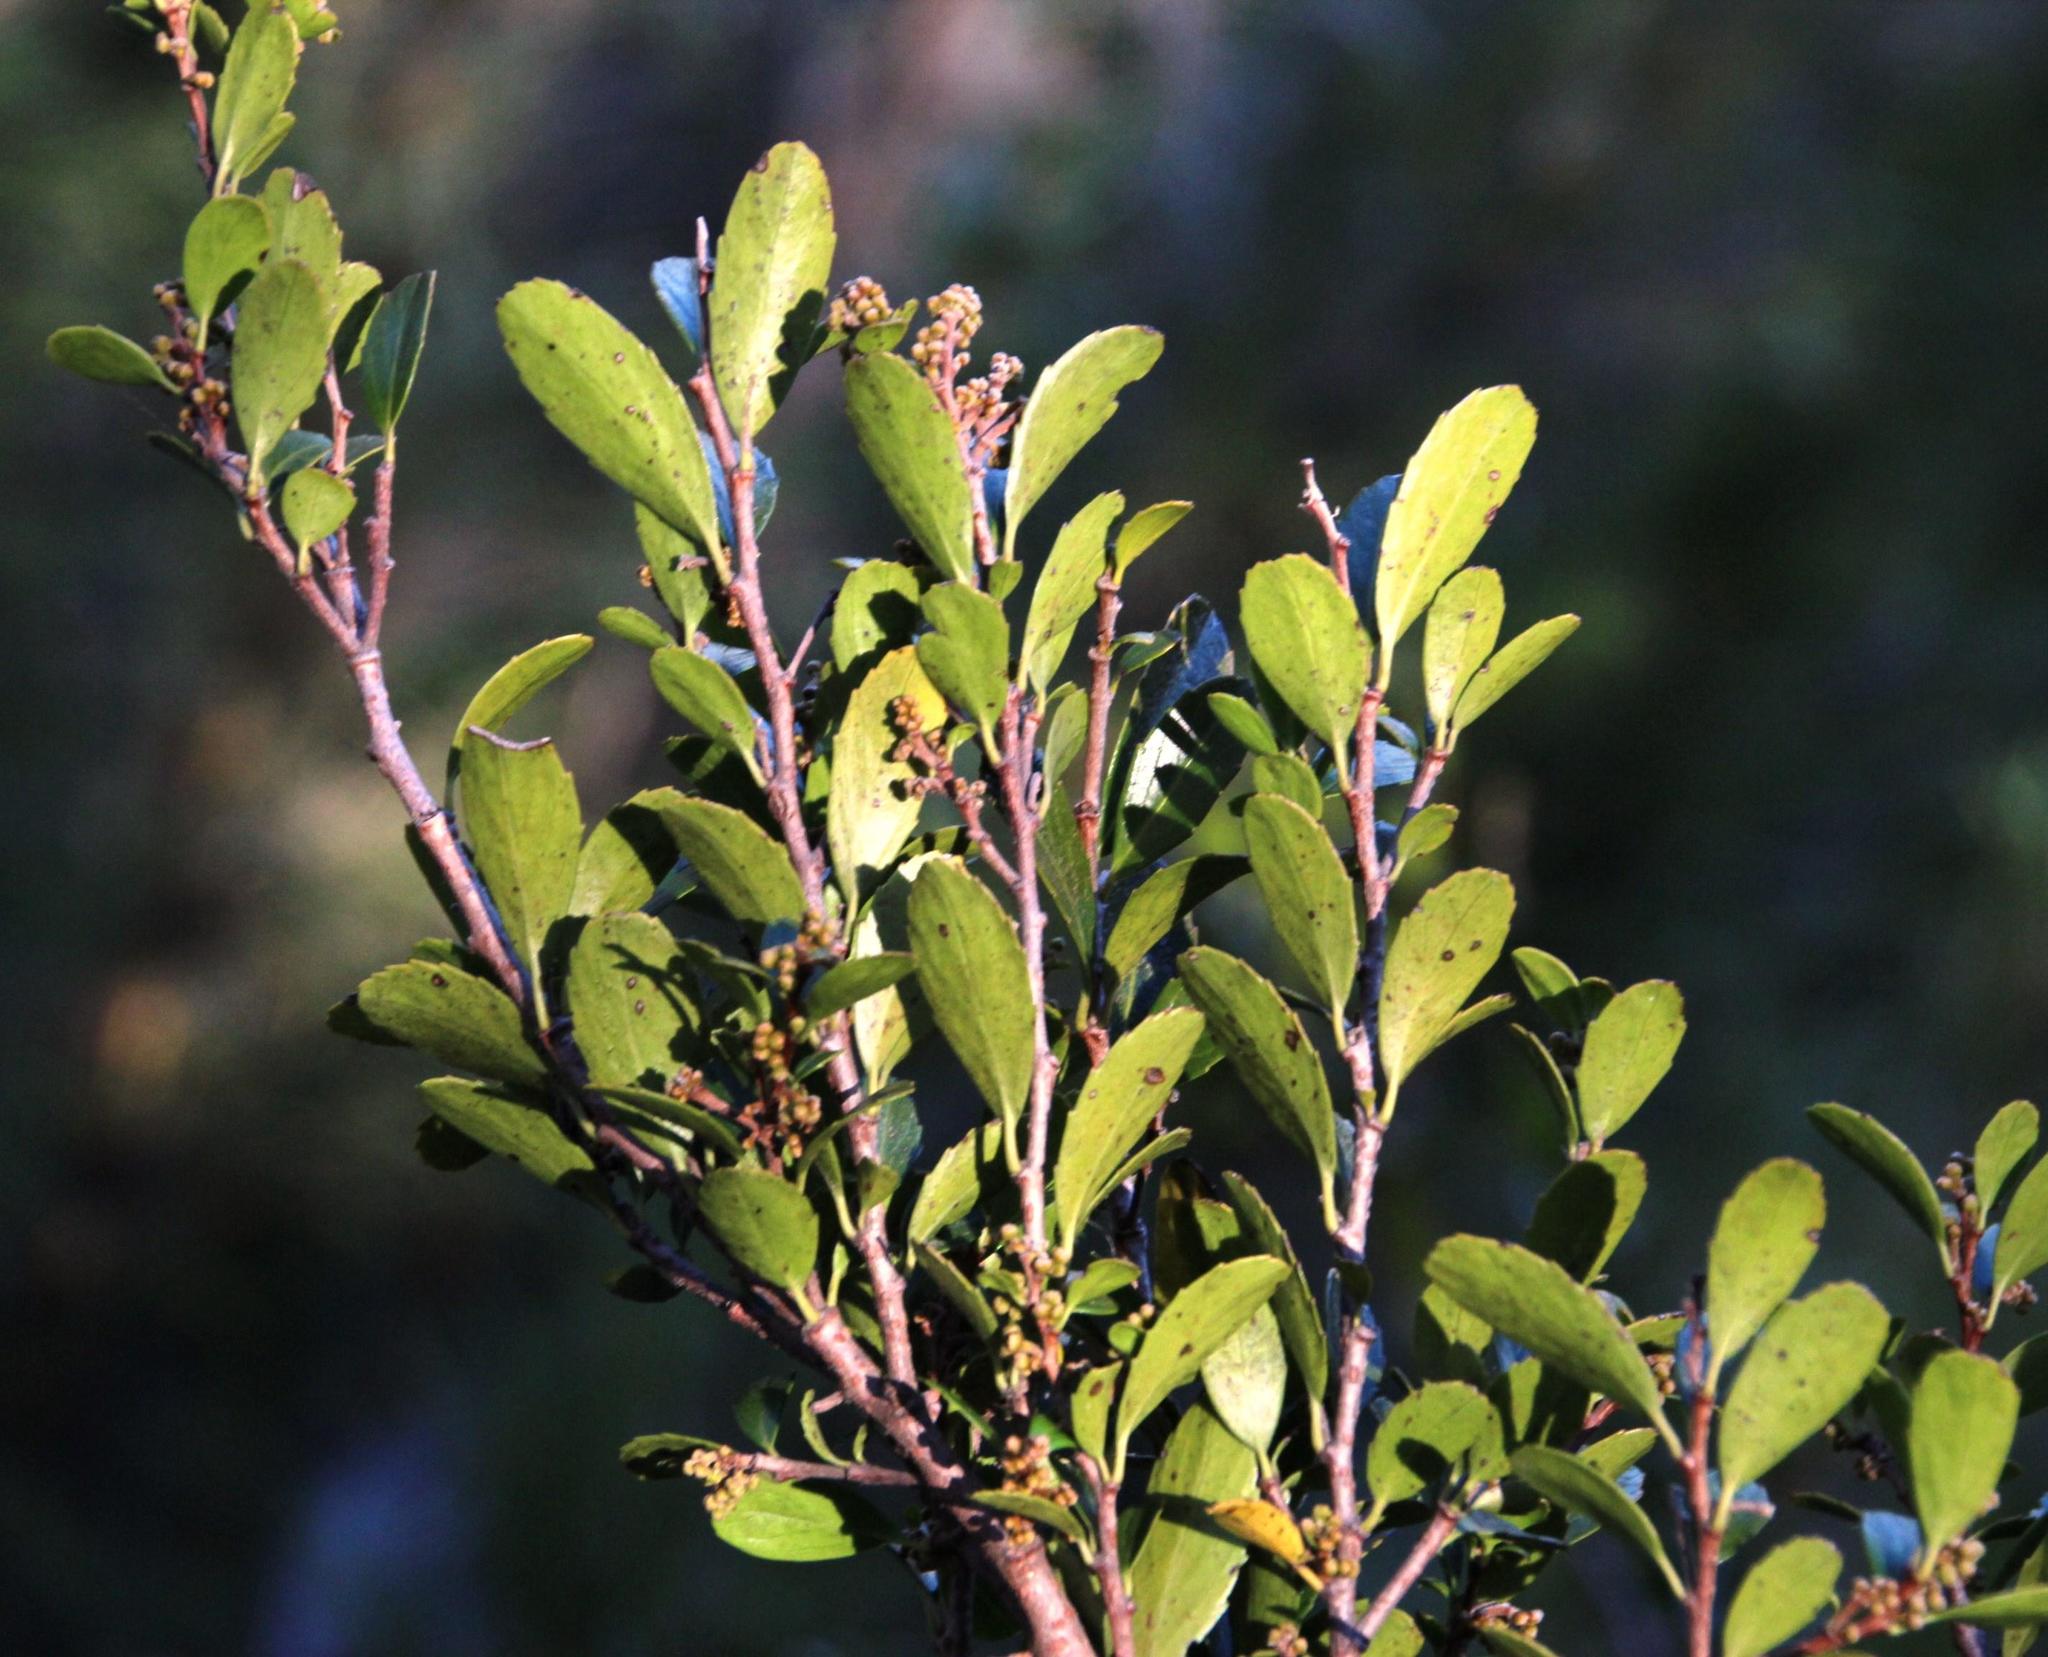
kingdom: Plantae
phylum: Tracheophyta
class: Magnoliopsida
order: Malpighiales
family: Salicaceae
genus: Azara
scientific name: Azara alpina
